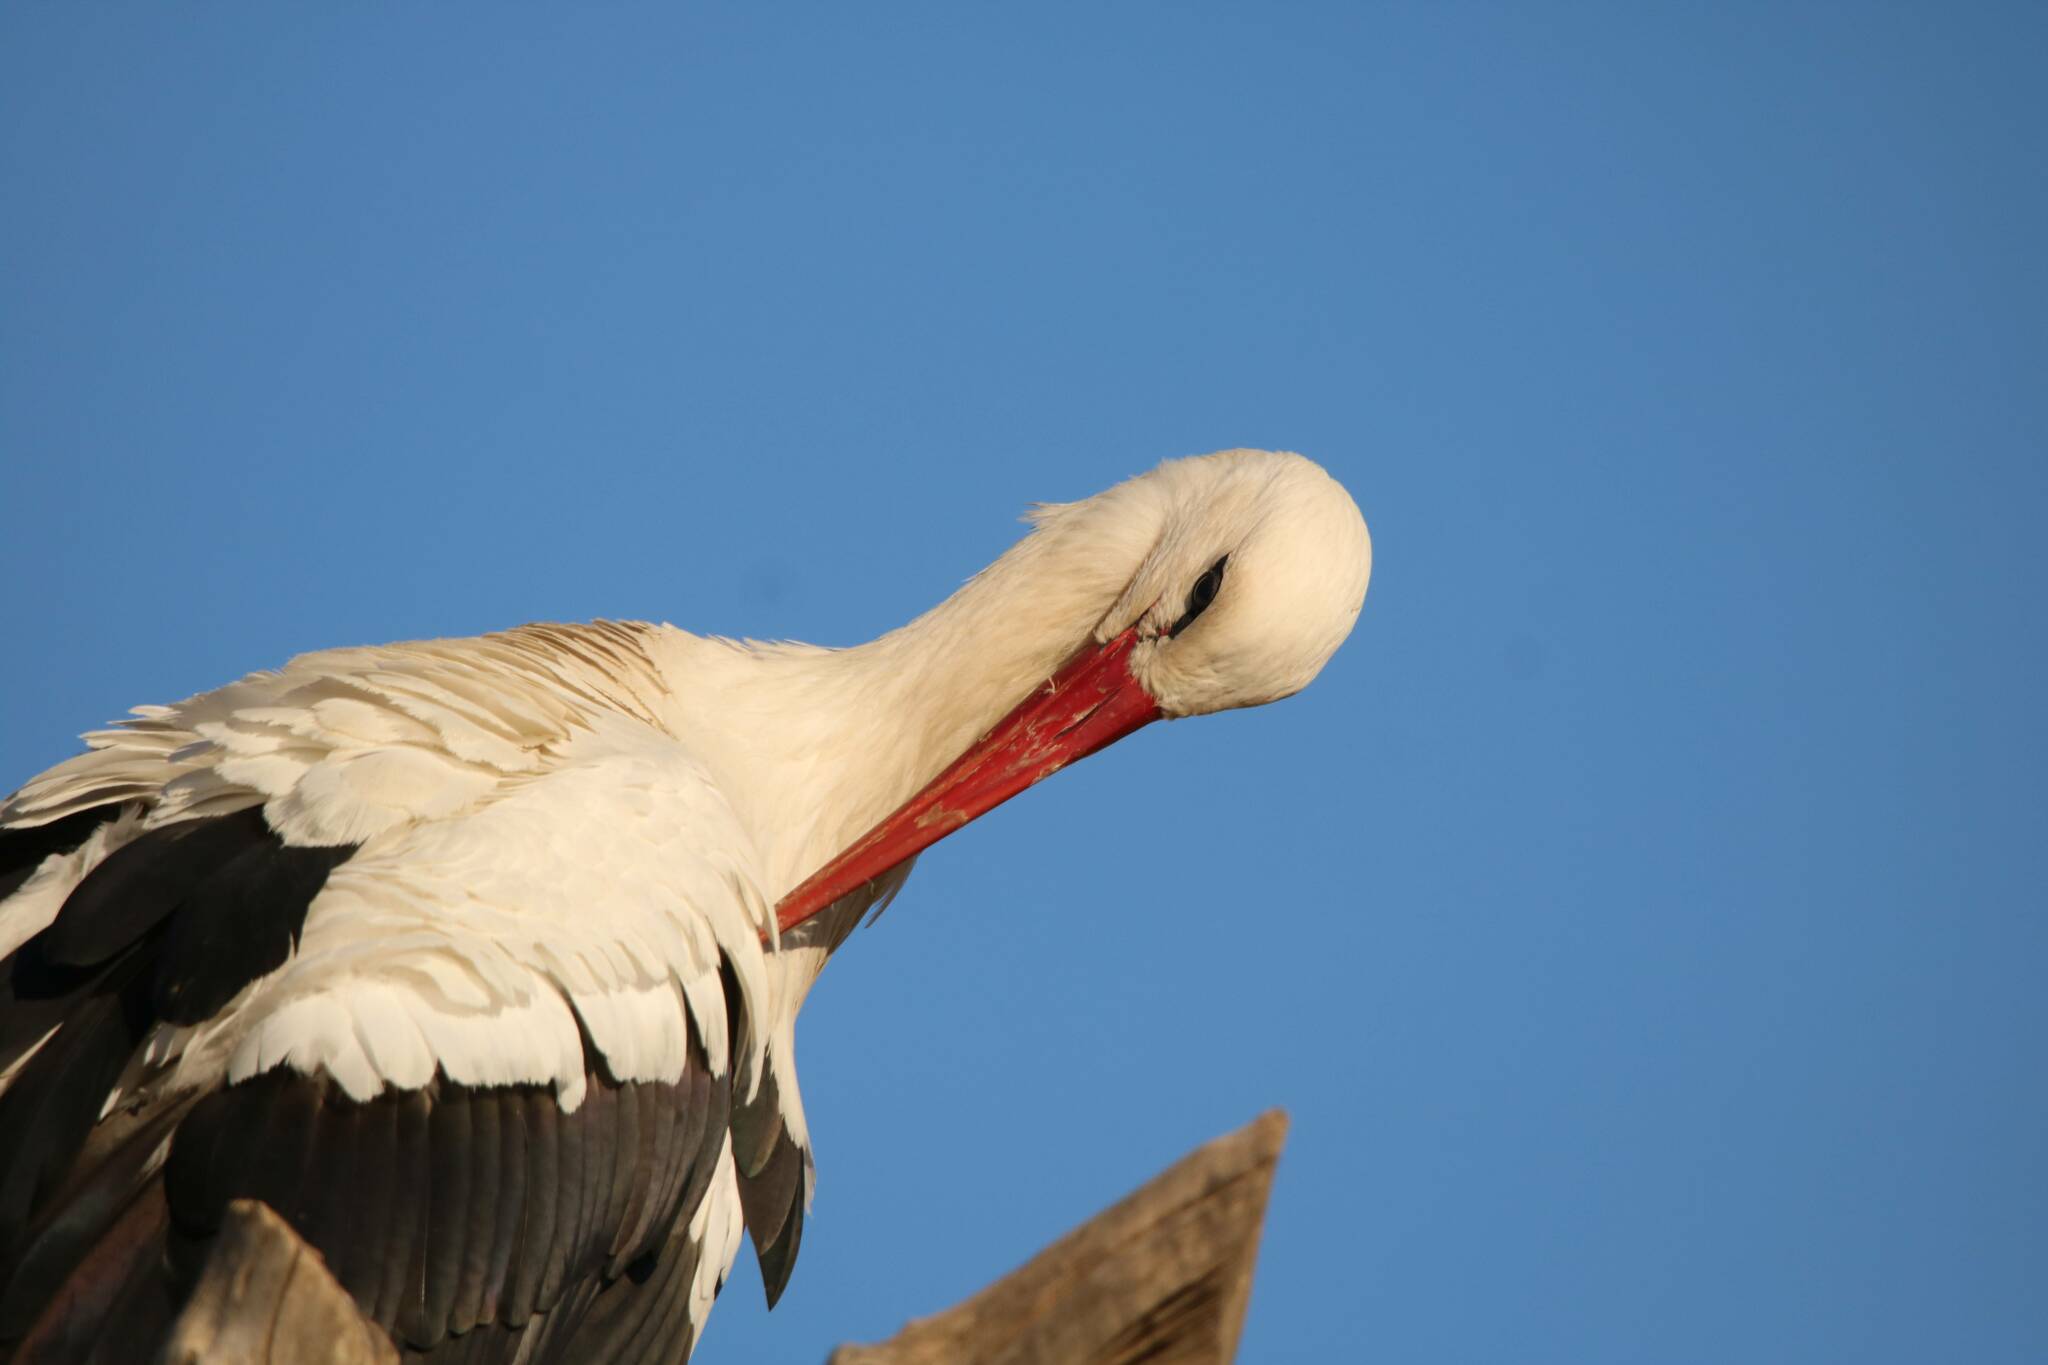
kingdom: Animalia
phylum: Chordata
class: Aves
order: Ciconiiformes
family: Ciconiidae
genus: Ciconia
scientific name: Ciconia ciconia
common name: White stork
